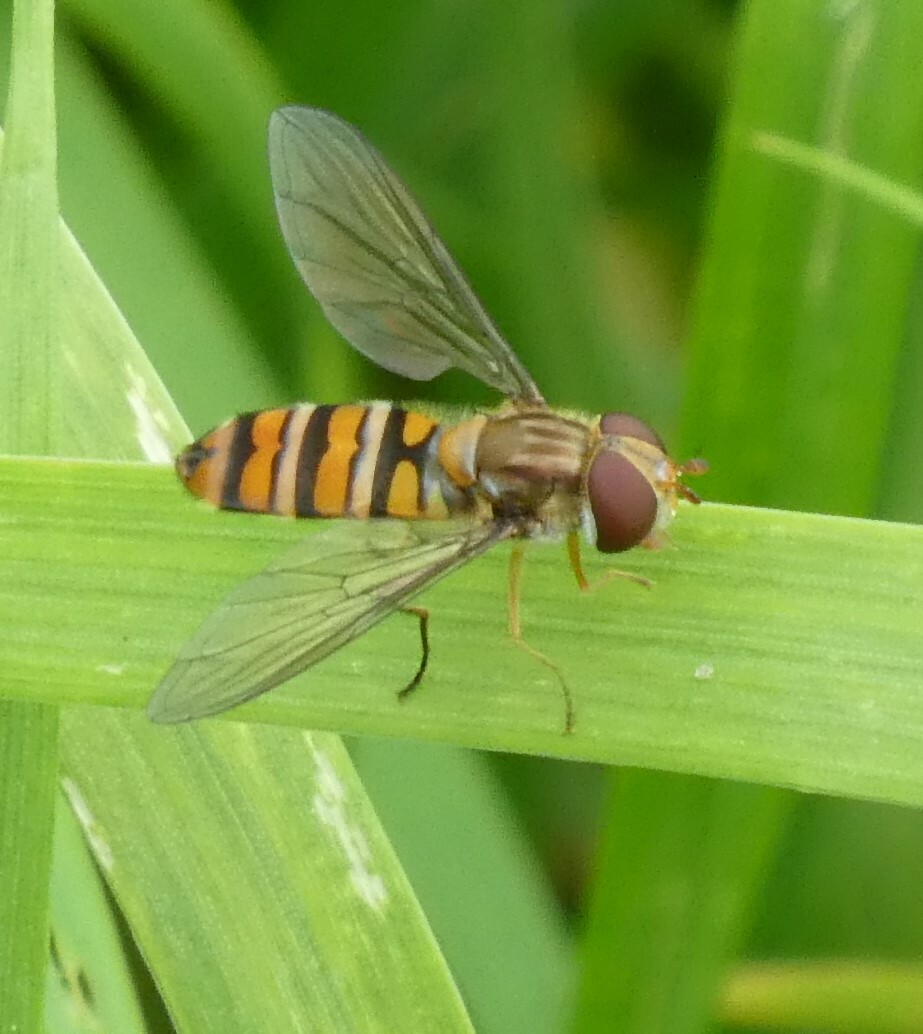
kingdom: Animalia
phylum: Arthropoda
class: Insecta
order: Diptera
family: Syrphidae
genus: Episyrphus
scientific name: Episyrphus balteatus
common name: Marmalade hoverfly
